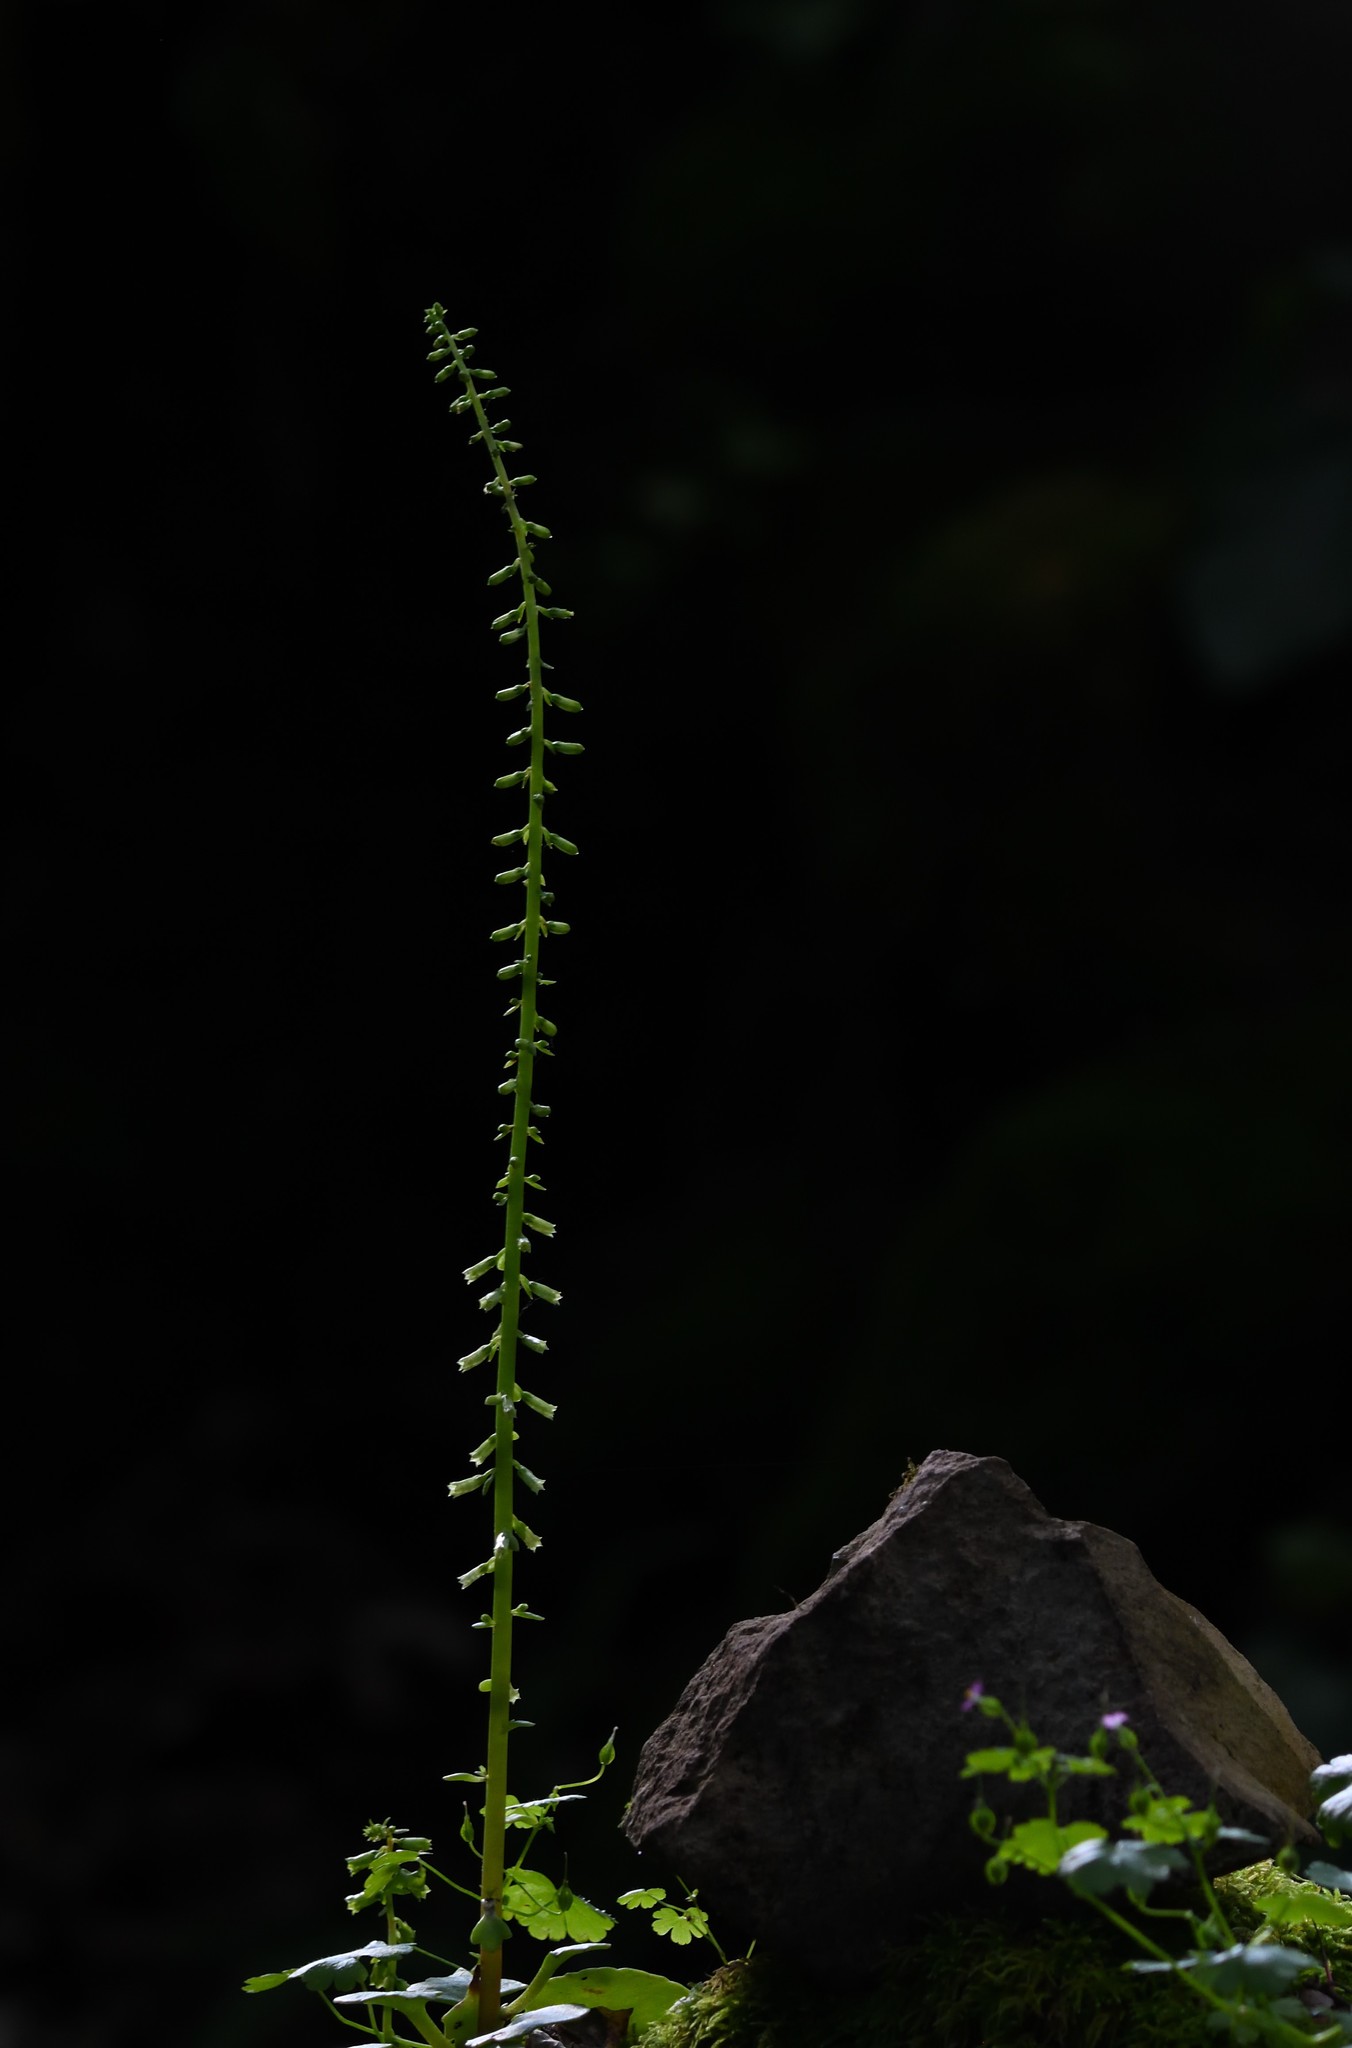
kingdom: Plantae
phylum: Tracheophyta
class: Magnoliopsida
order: Saxifragales
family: Crassulaceae
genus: Umbilicus
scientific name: Umbilicus rupestris
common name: Navelwort
